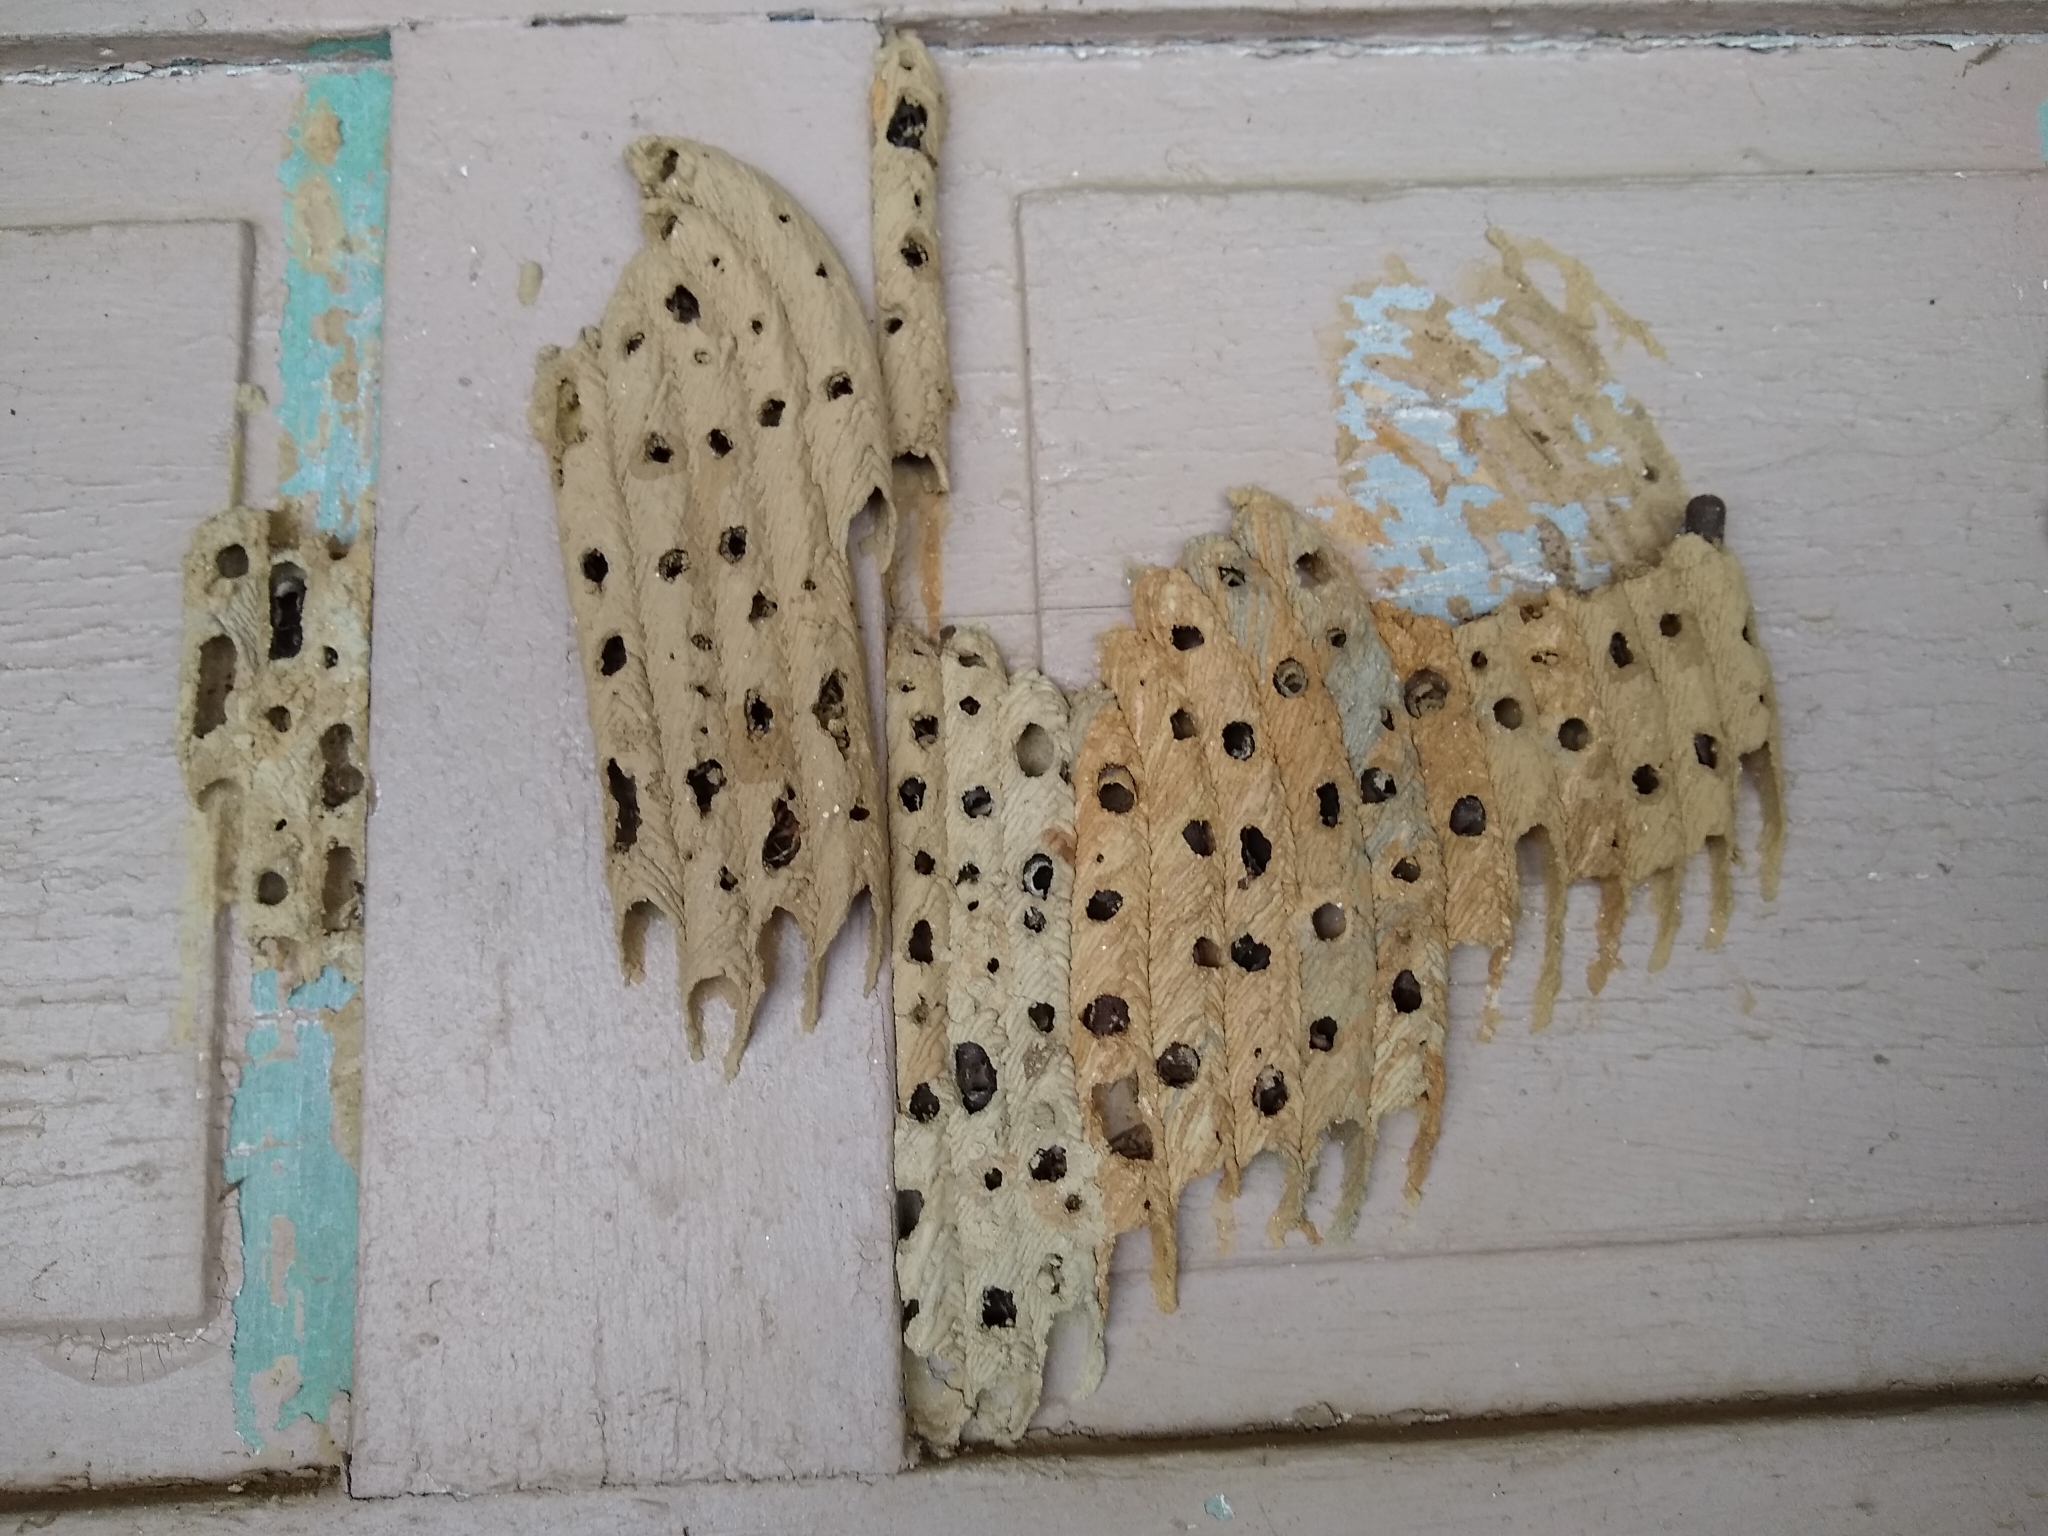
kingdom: Animalia
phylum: Arthropoda
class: Insecta
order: Hymenoptera
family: Crabronidae
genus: Trypoxylon
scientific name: Trypoxylon politum
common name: Organ-pipe mud-dauber wasp
